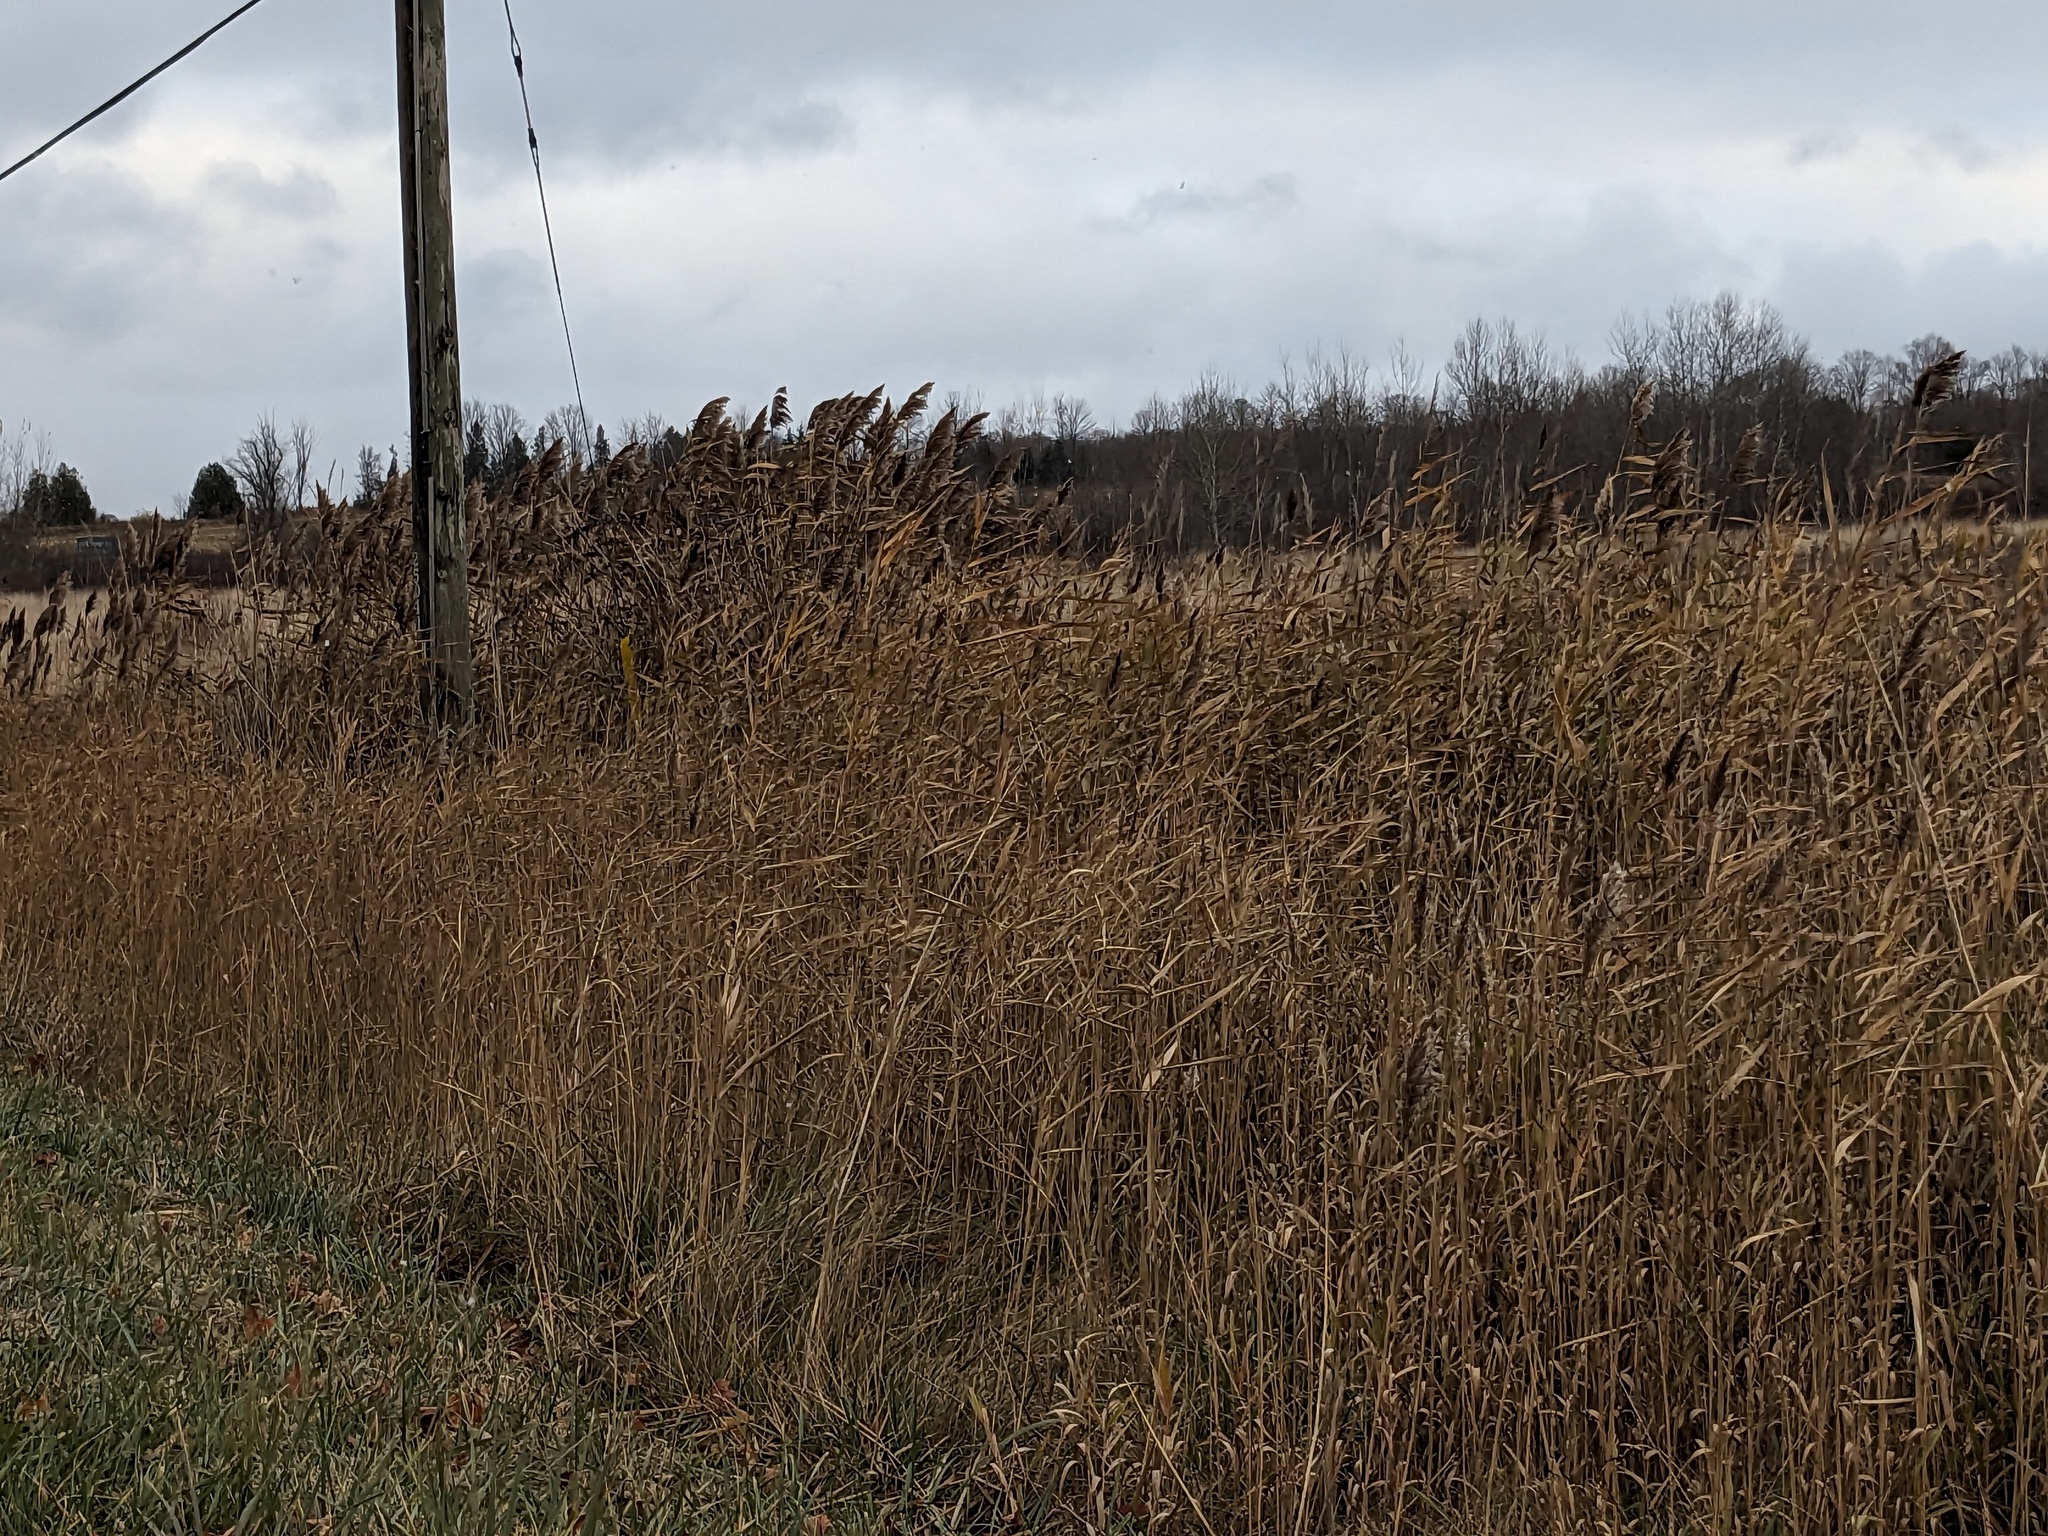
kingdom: Plantae
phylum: Tracheophyta
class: Liliopsida
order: Poales
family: Poaceae
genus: Phragmites
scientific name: Phragmites australis
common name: Common reed
